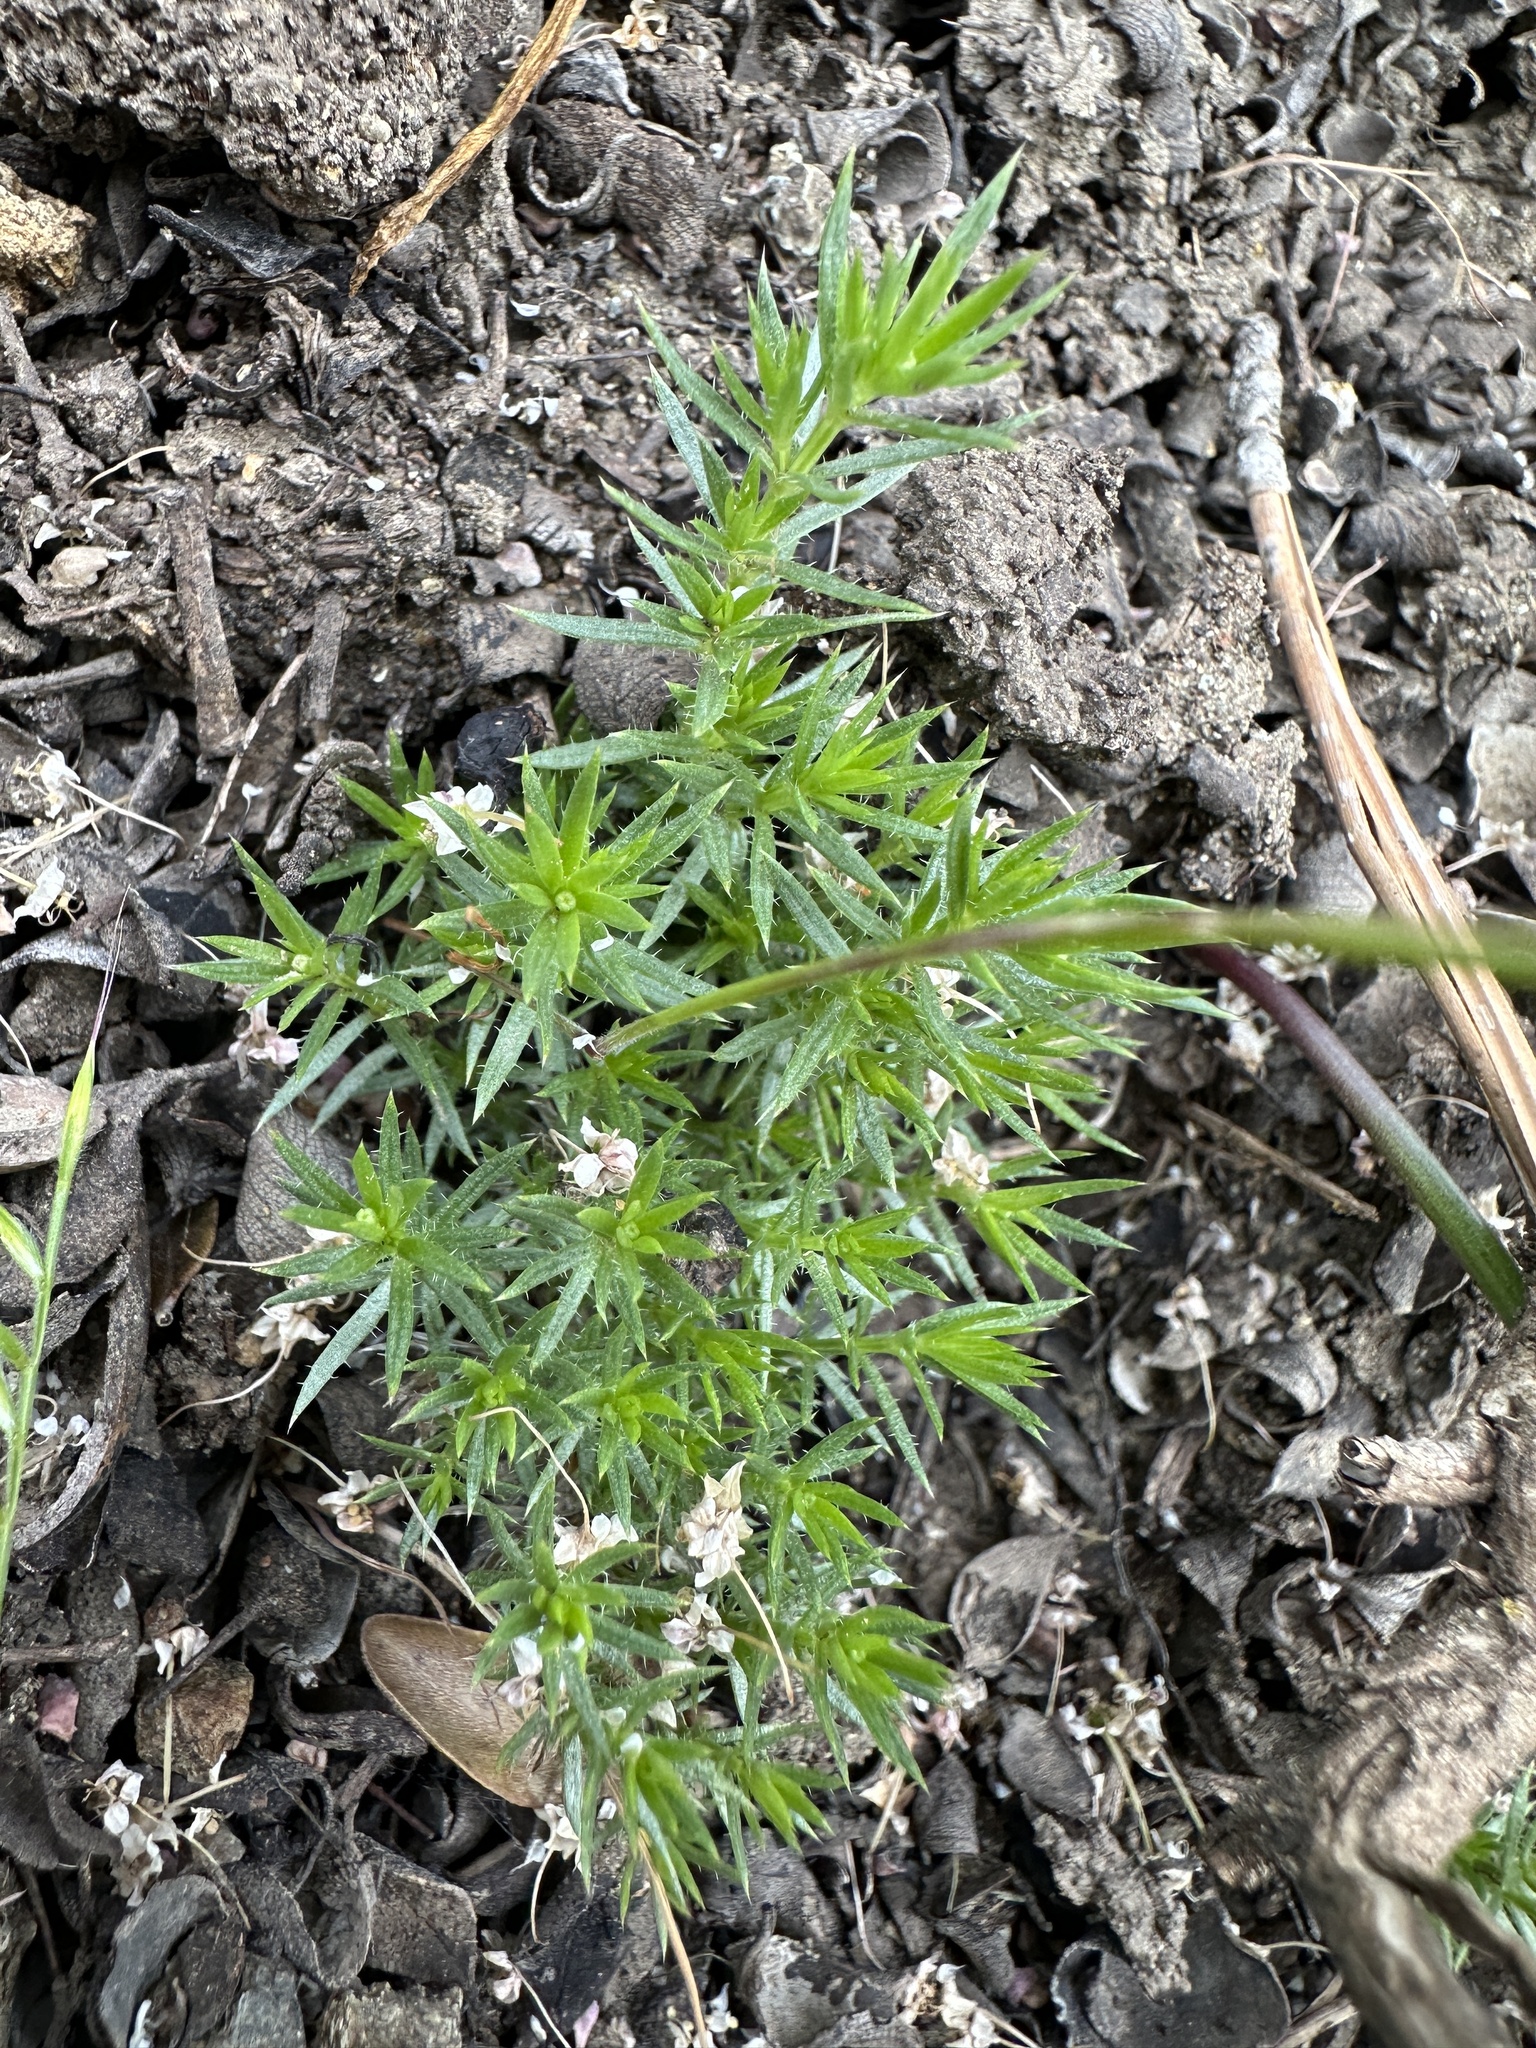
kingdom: Plantae
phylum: Tracheophyta
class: Magnoliopsida
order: Gentianales
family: Rubiaceae
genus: Galium
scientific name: Galium andrewsii
